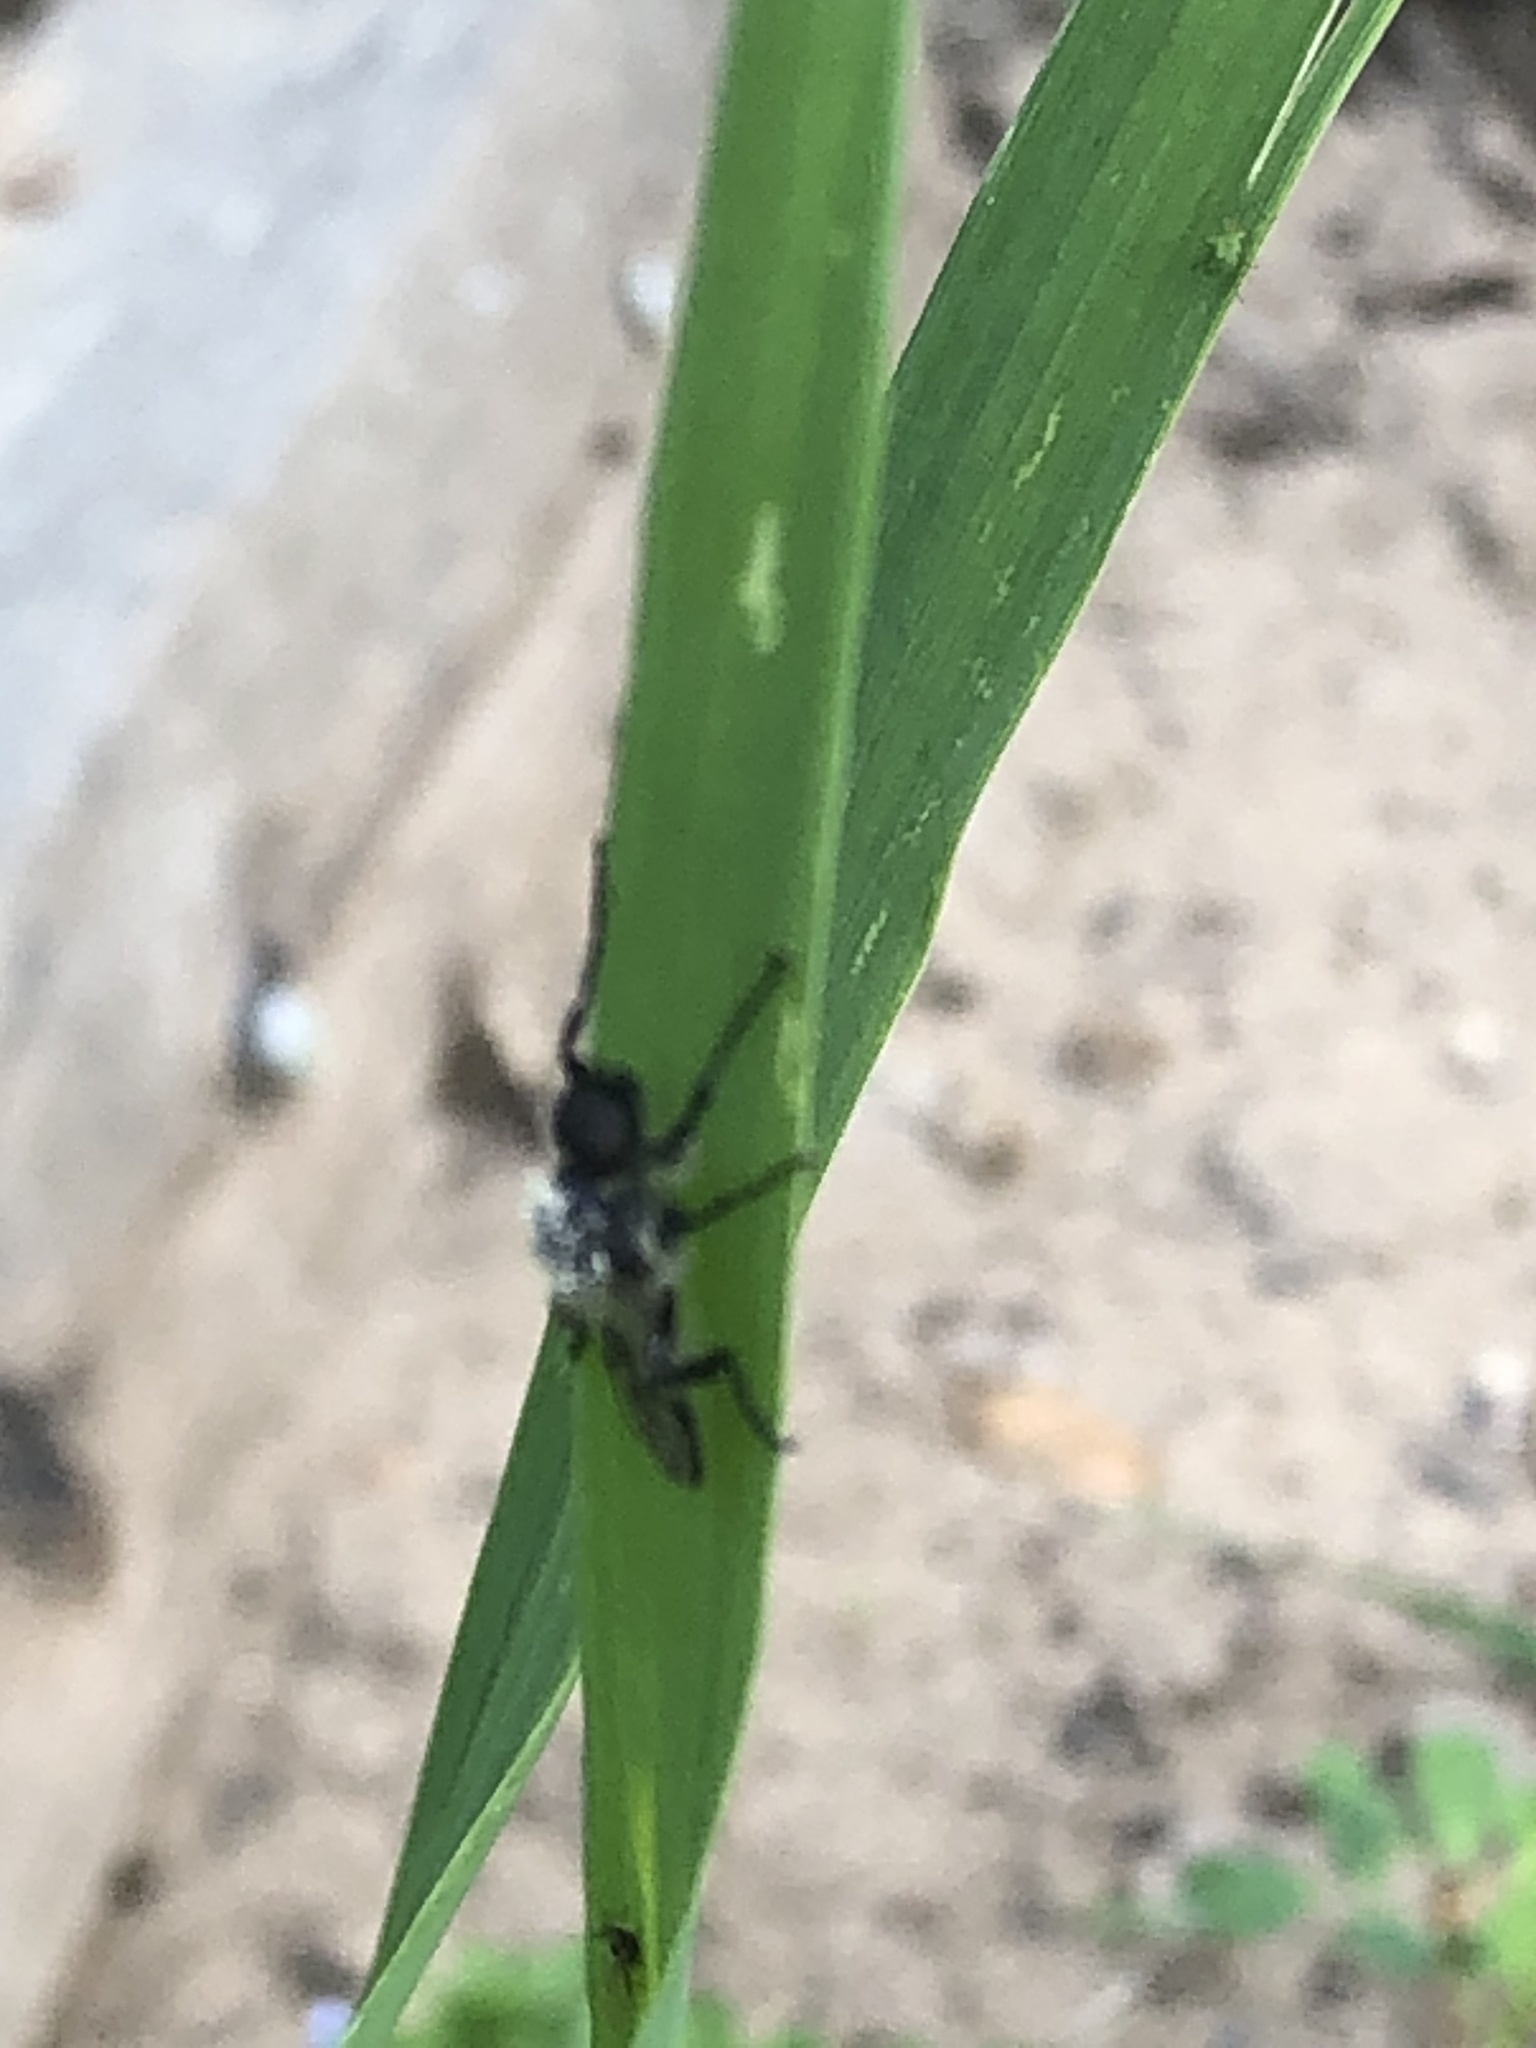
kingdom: Animalia
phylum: Arthropoda
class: Insecta
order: Diptera
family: Bibionidae
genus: Bibio
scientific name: Bibio albipennis
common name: White-winged march fly
